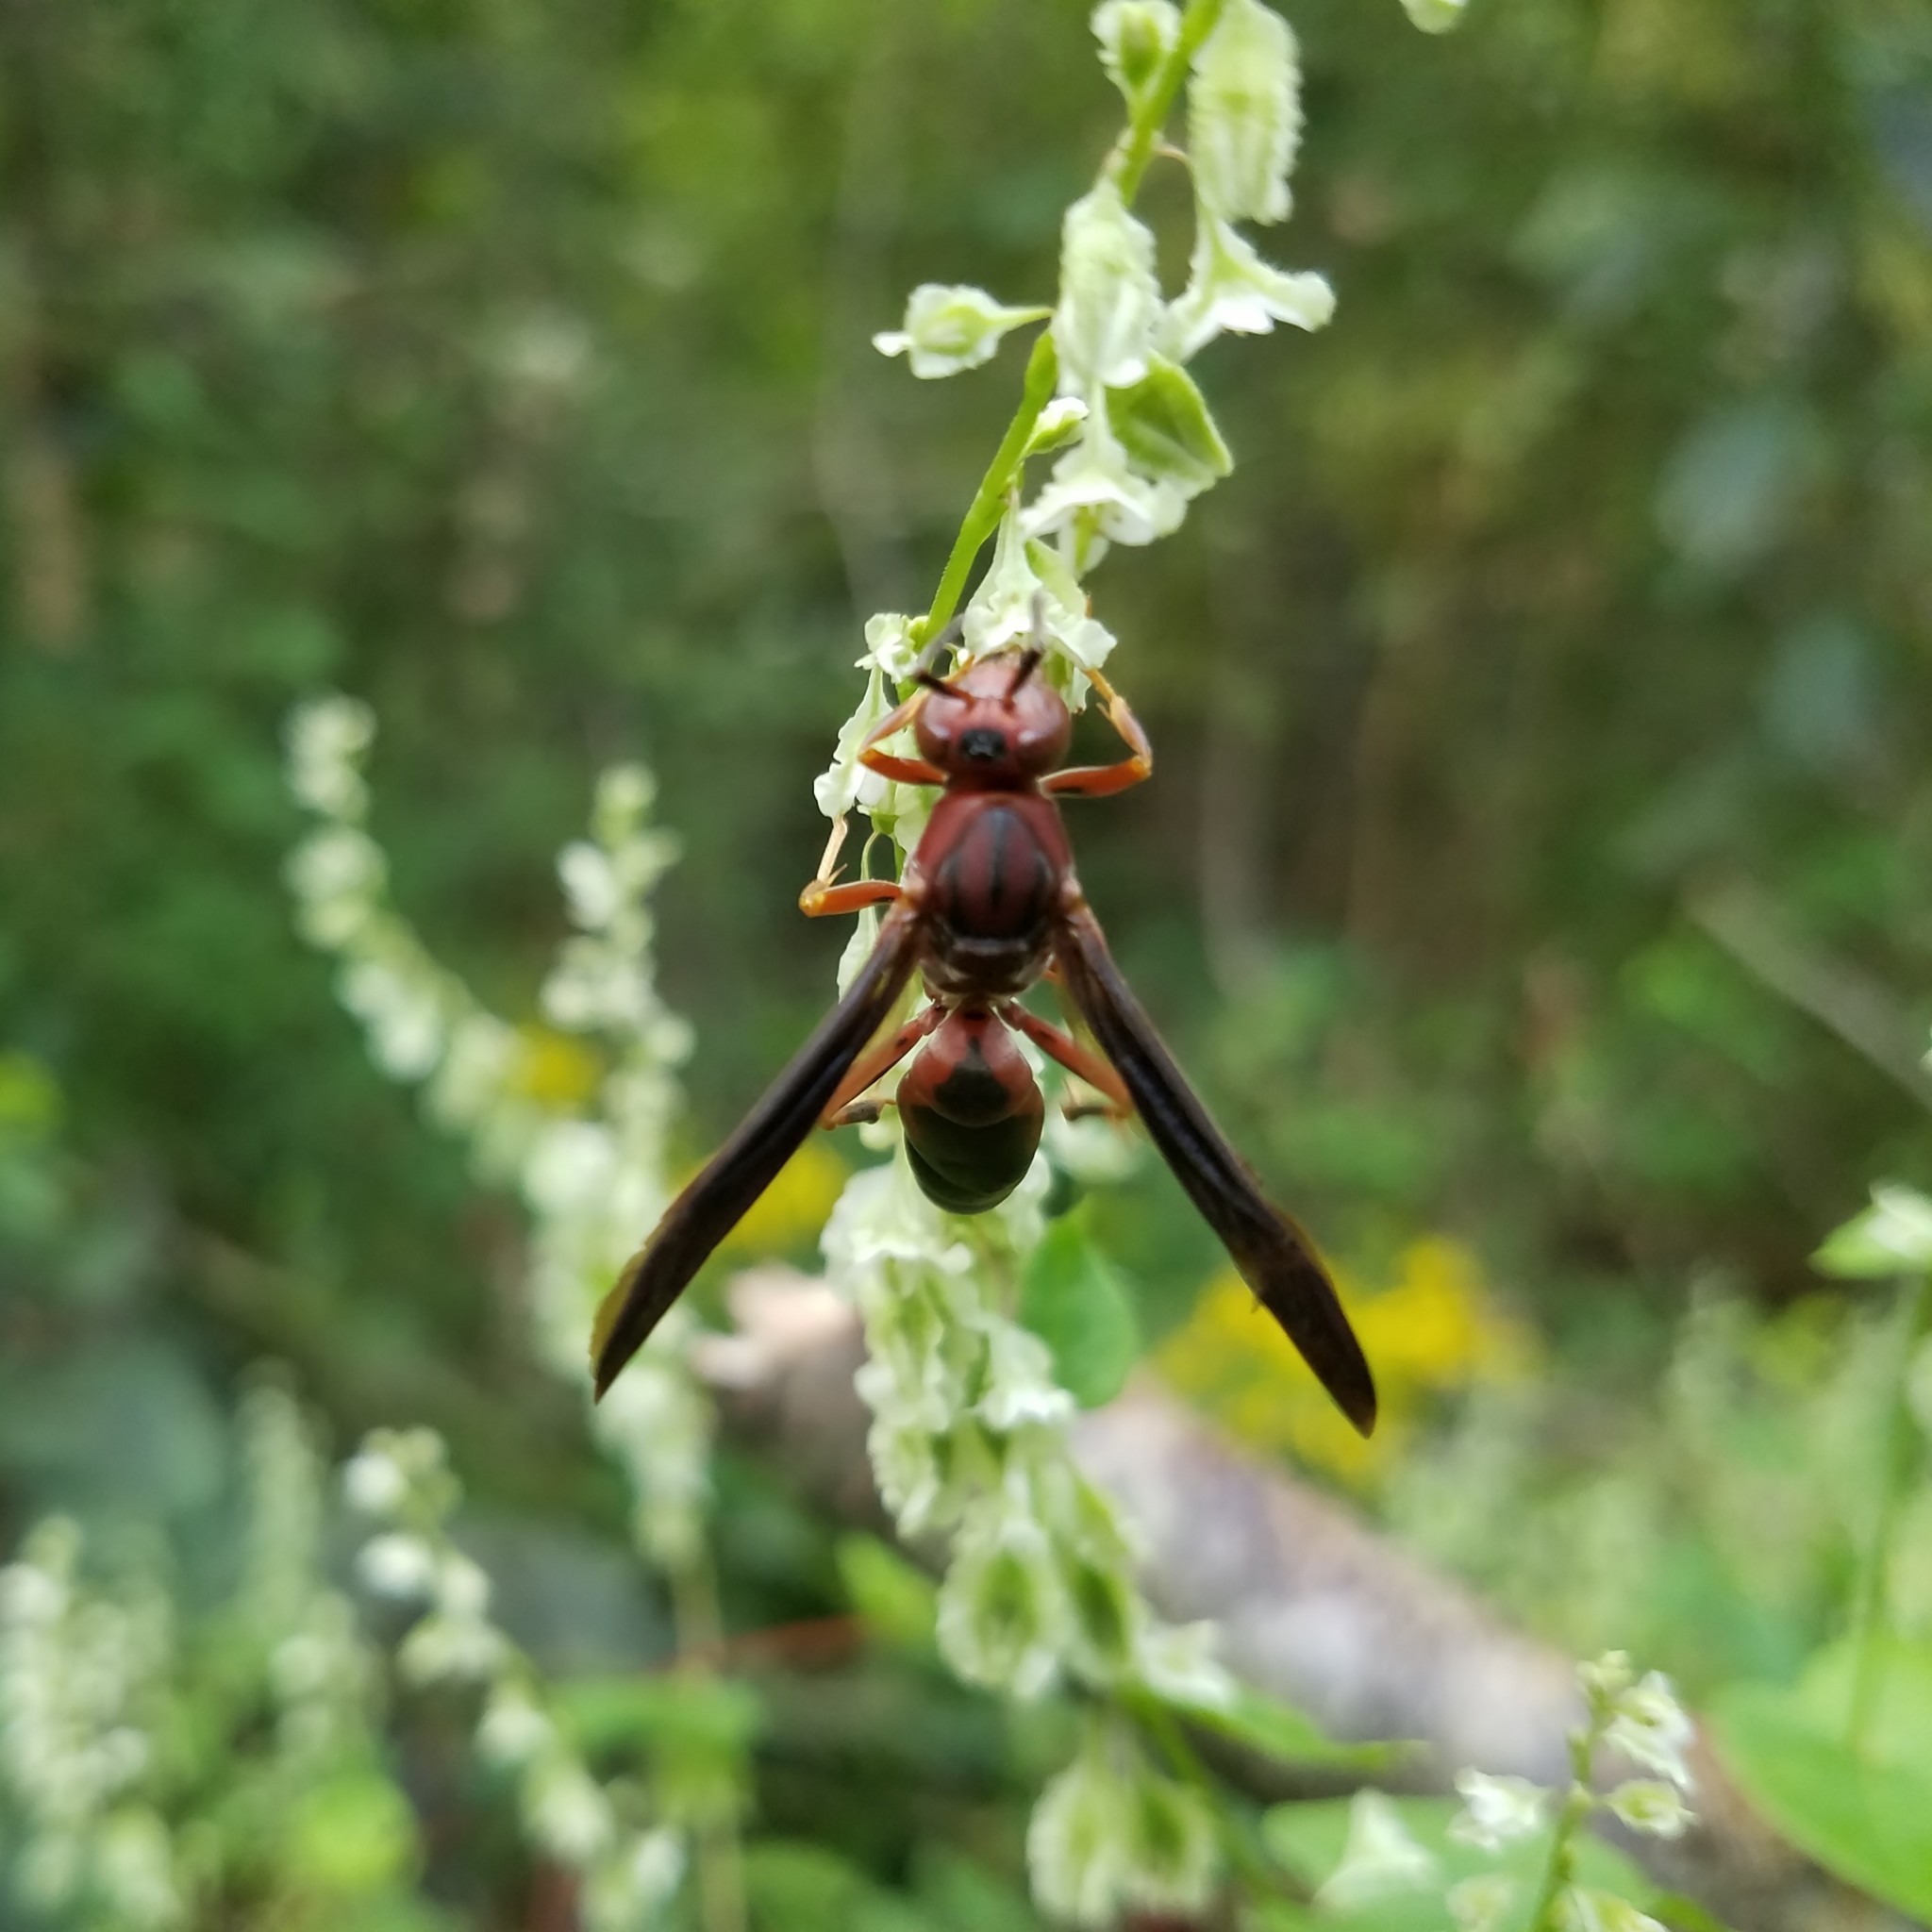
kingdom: Animalia
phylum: Arthropoda
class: Insecta
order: Hymenoptera
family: Eumenidae
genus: Polistes
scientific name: Polistes metricus
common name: Metric paper wasp
